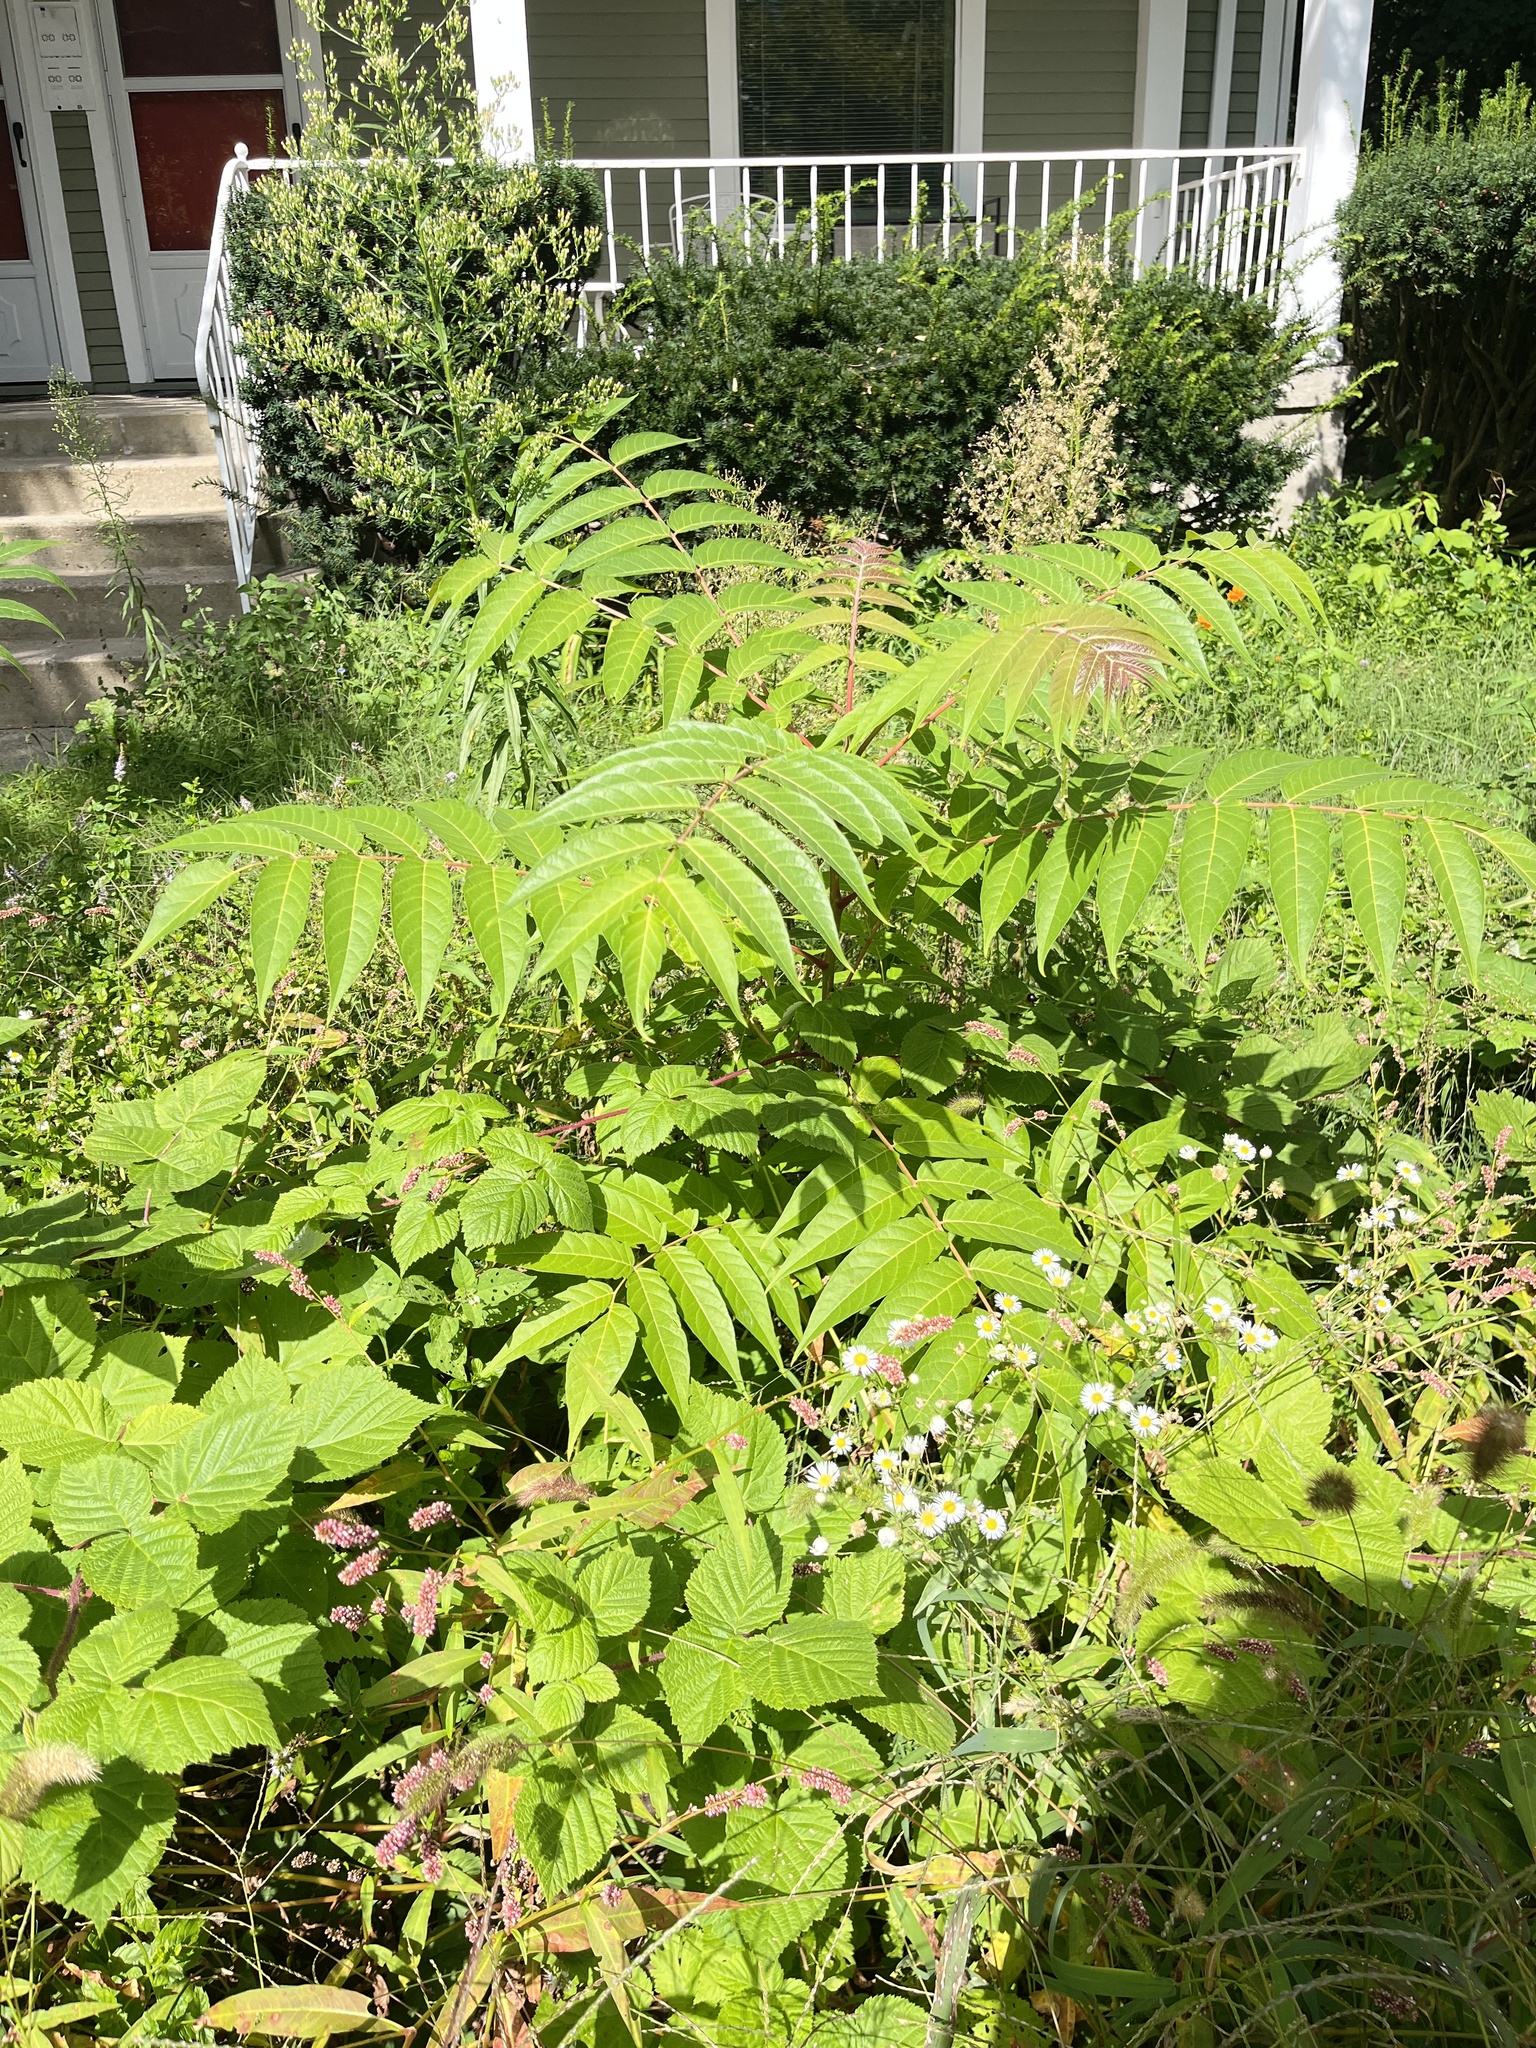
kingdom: Plantae
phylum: Tracheophyta
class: Magnoliopsida
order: Sapindales
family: Simaroubaceae
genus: Ailanthus
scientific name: Ailanthus altissima
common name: Tree-of-heaven
